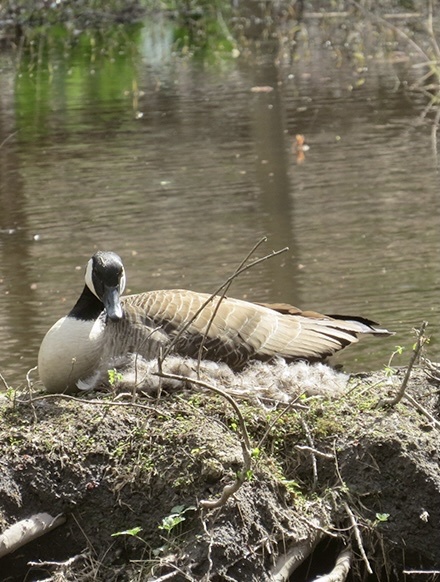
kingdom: Animalia
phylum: Chordata
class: Aves
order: Anseriformes
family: Anatidae
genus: Branta
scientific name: Branta canadensis
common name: Canada goose
